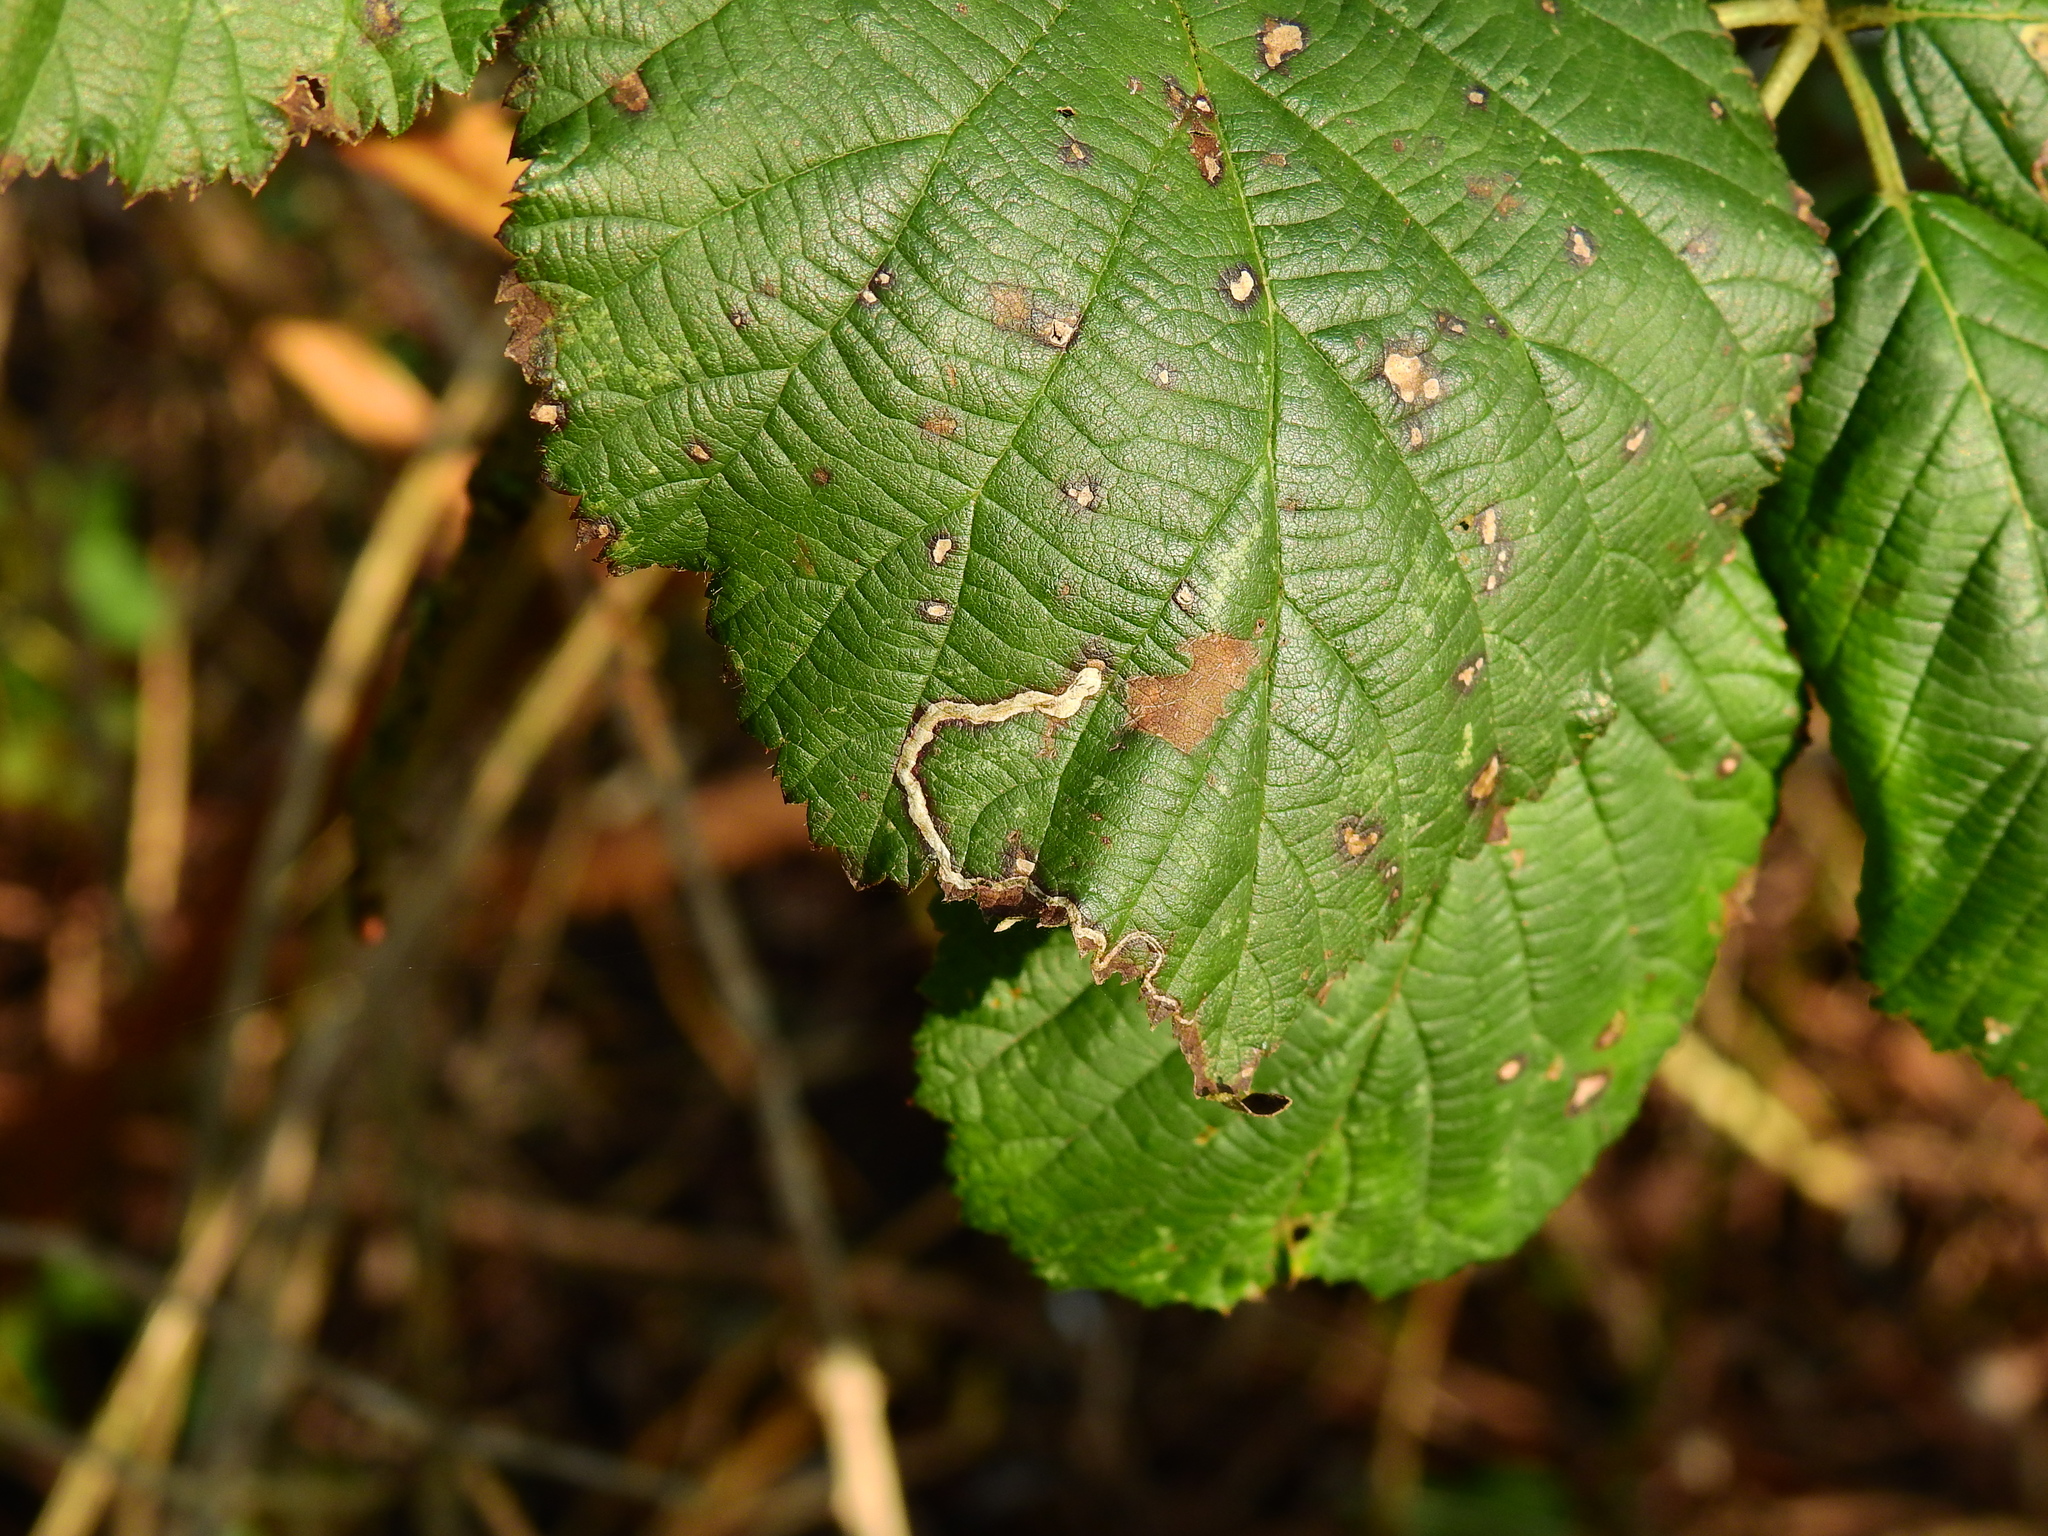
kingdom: Animalia
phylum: Arthropoda
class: Insecta
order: Lepidoptera
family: Nepticulidae
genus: Stigmella
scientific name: Stigmella aurella
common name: Golden pigmy
